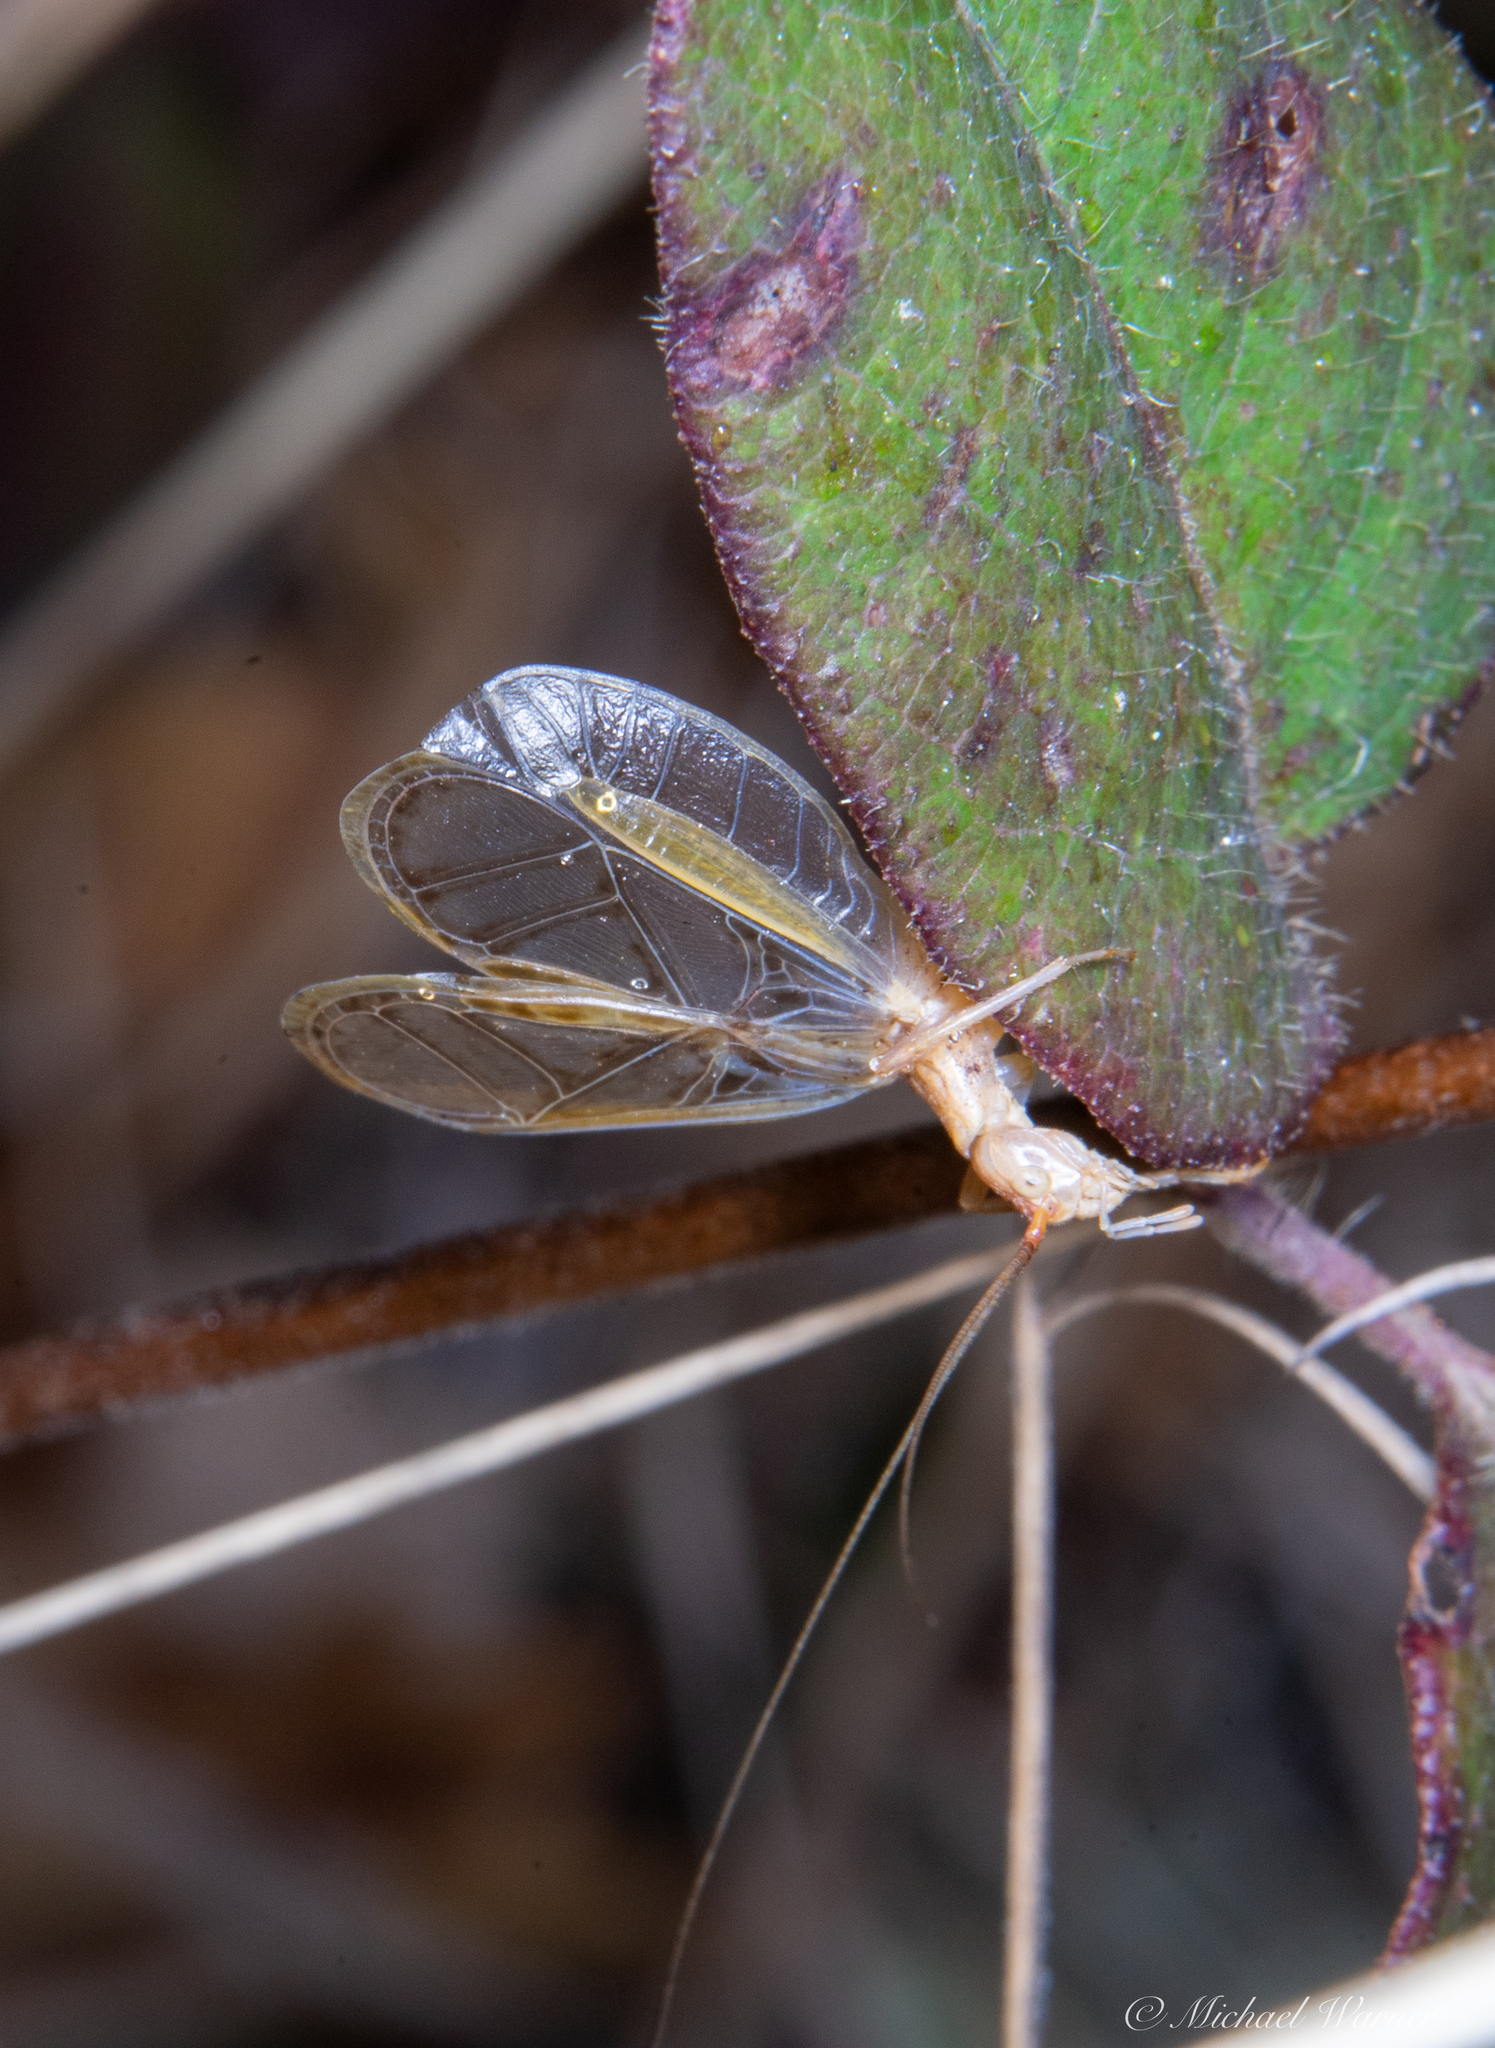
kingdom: Animalia
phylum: Arthropoda
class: Insecta
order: Orthoptera
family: Gryllidae
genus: Oecanthus
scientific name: Oecanthus californicus
